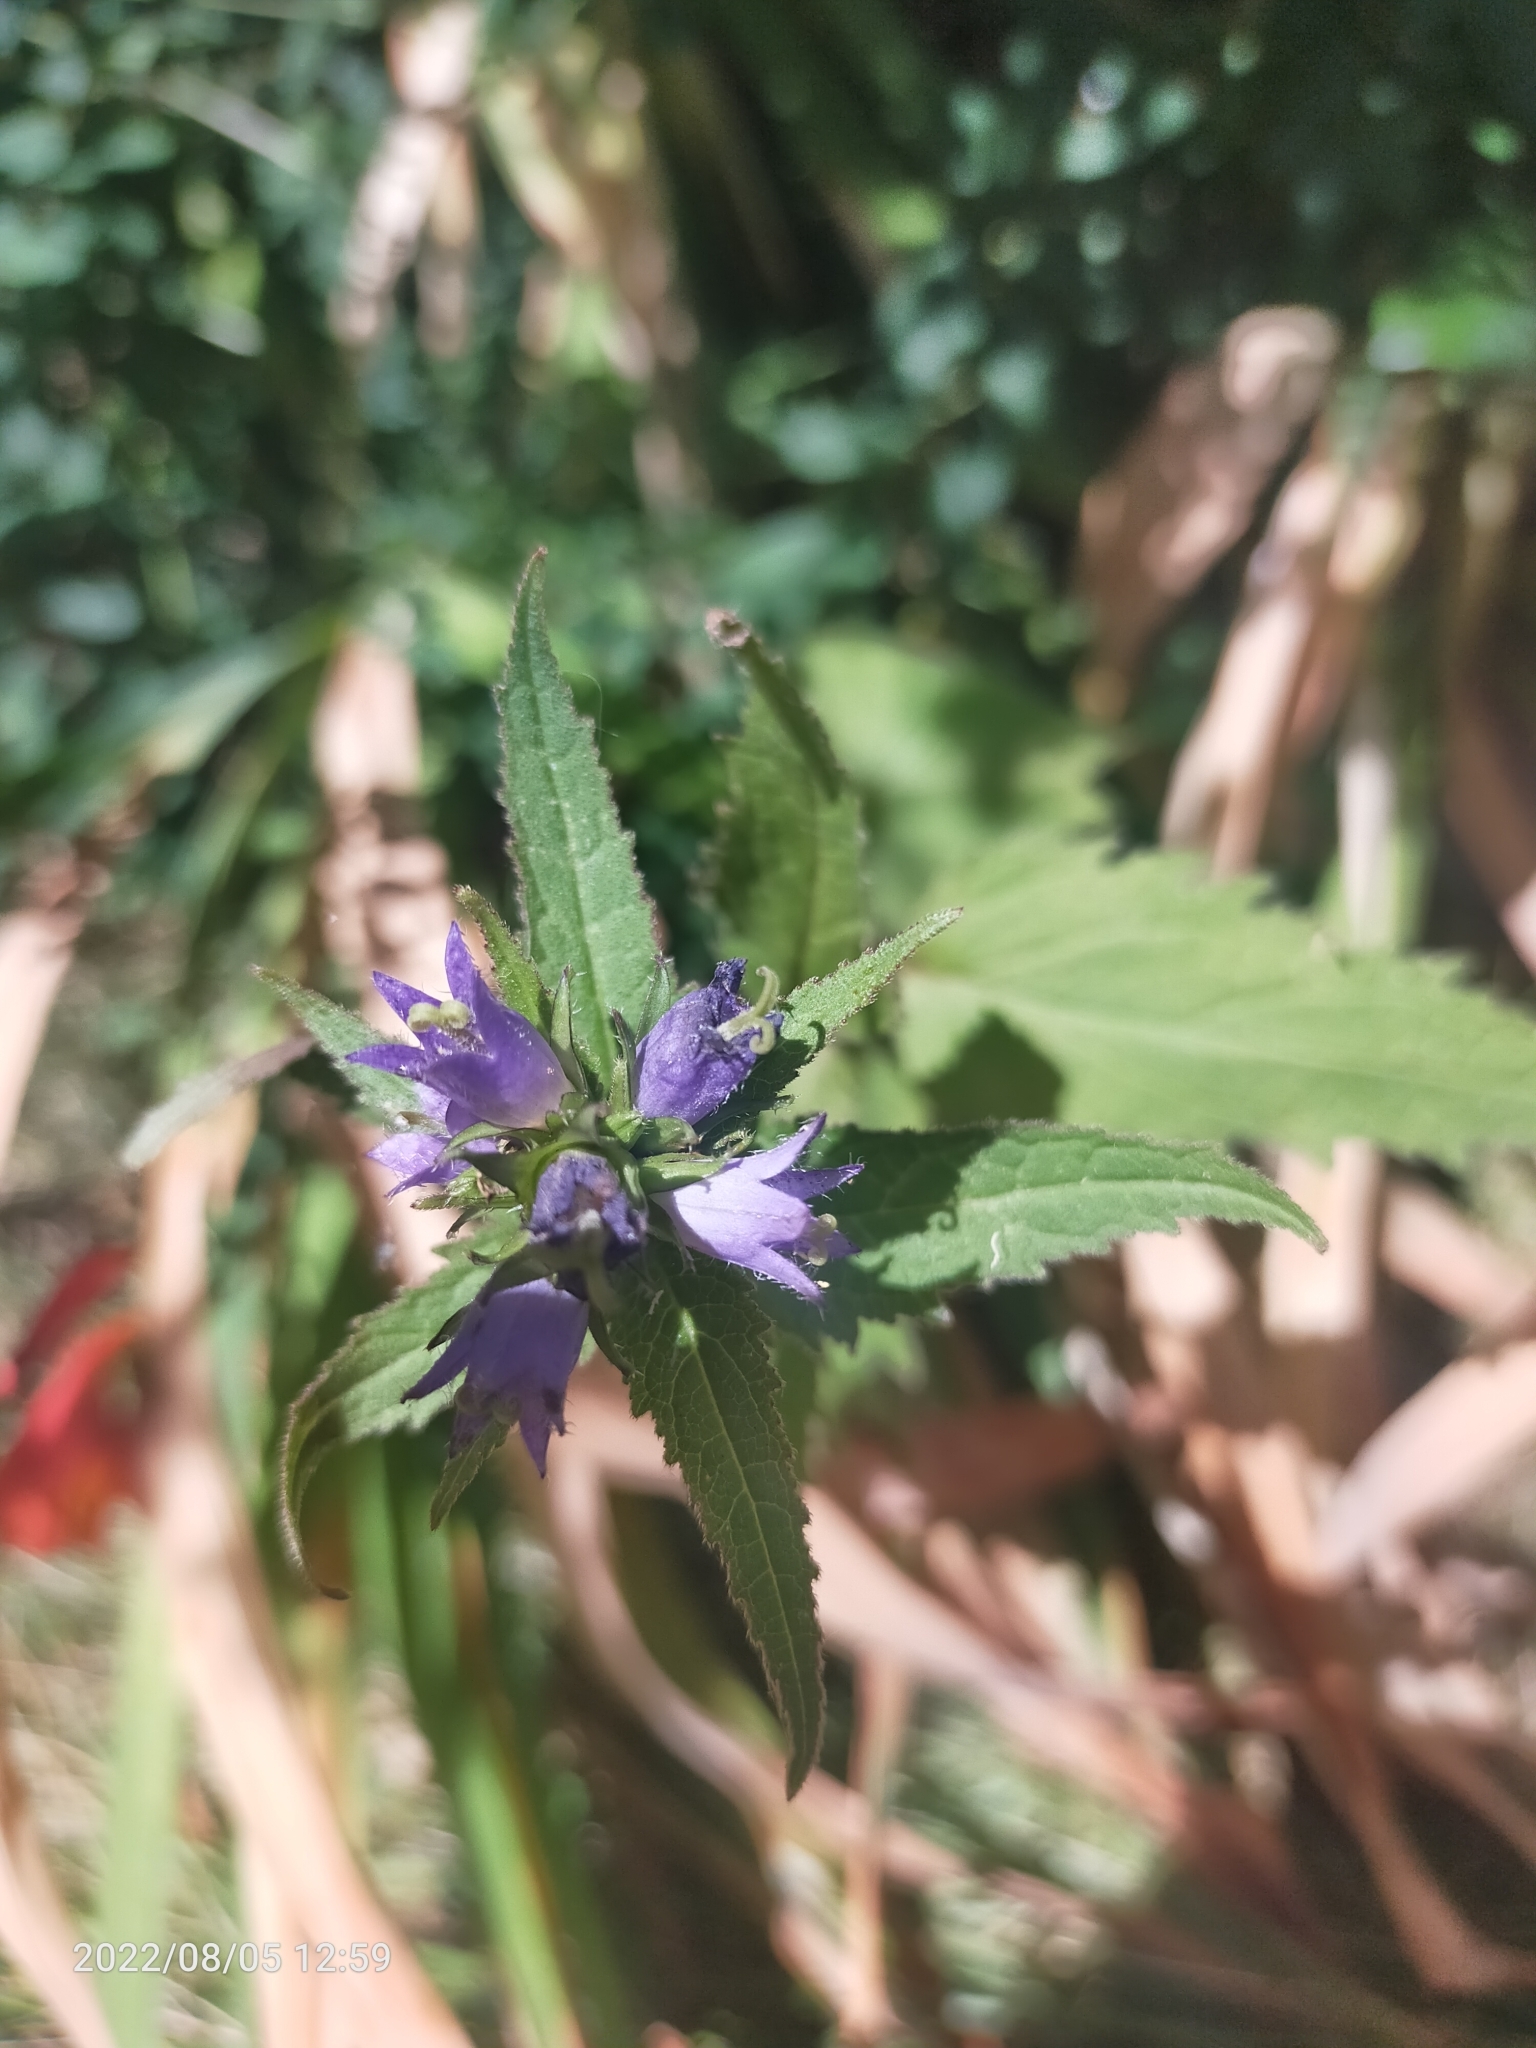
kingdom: Plantae
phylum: Tracheophyta
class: Magnoliopsida
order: Asterales
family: Campanulaceae
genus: Campanula
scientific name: Campanula trachelium
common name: Nettle-leaved bellflower
